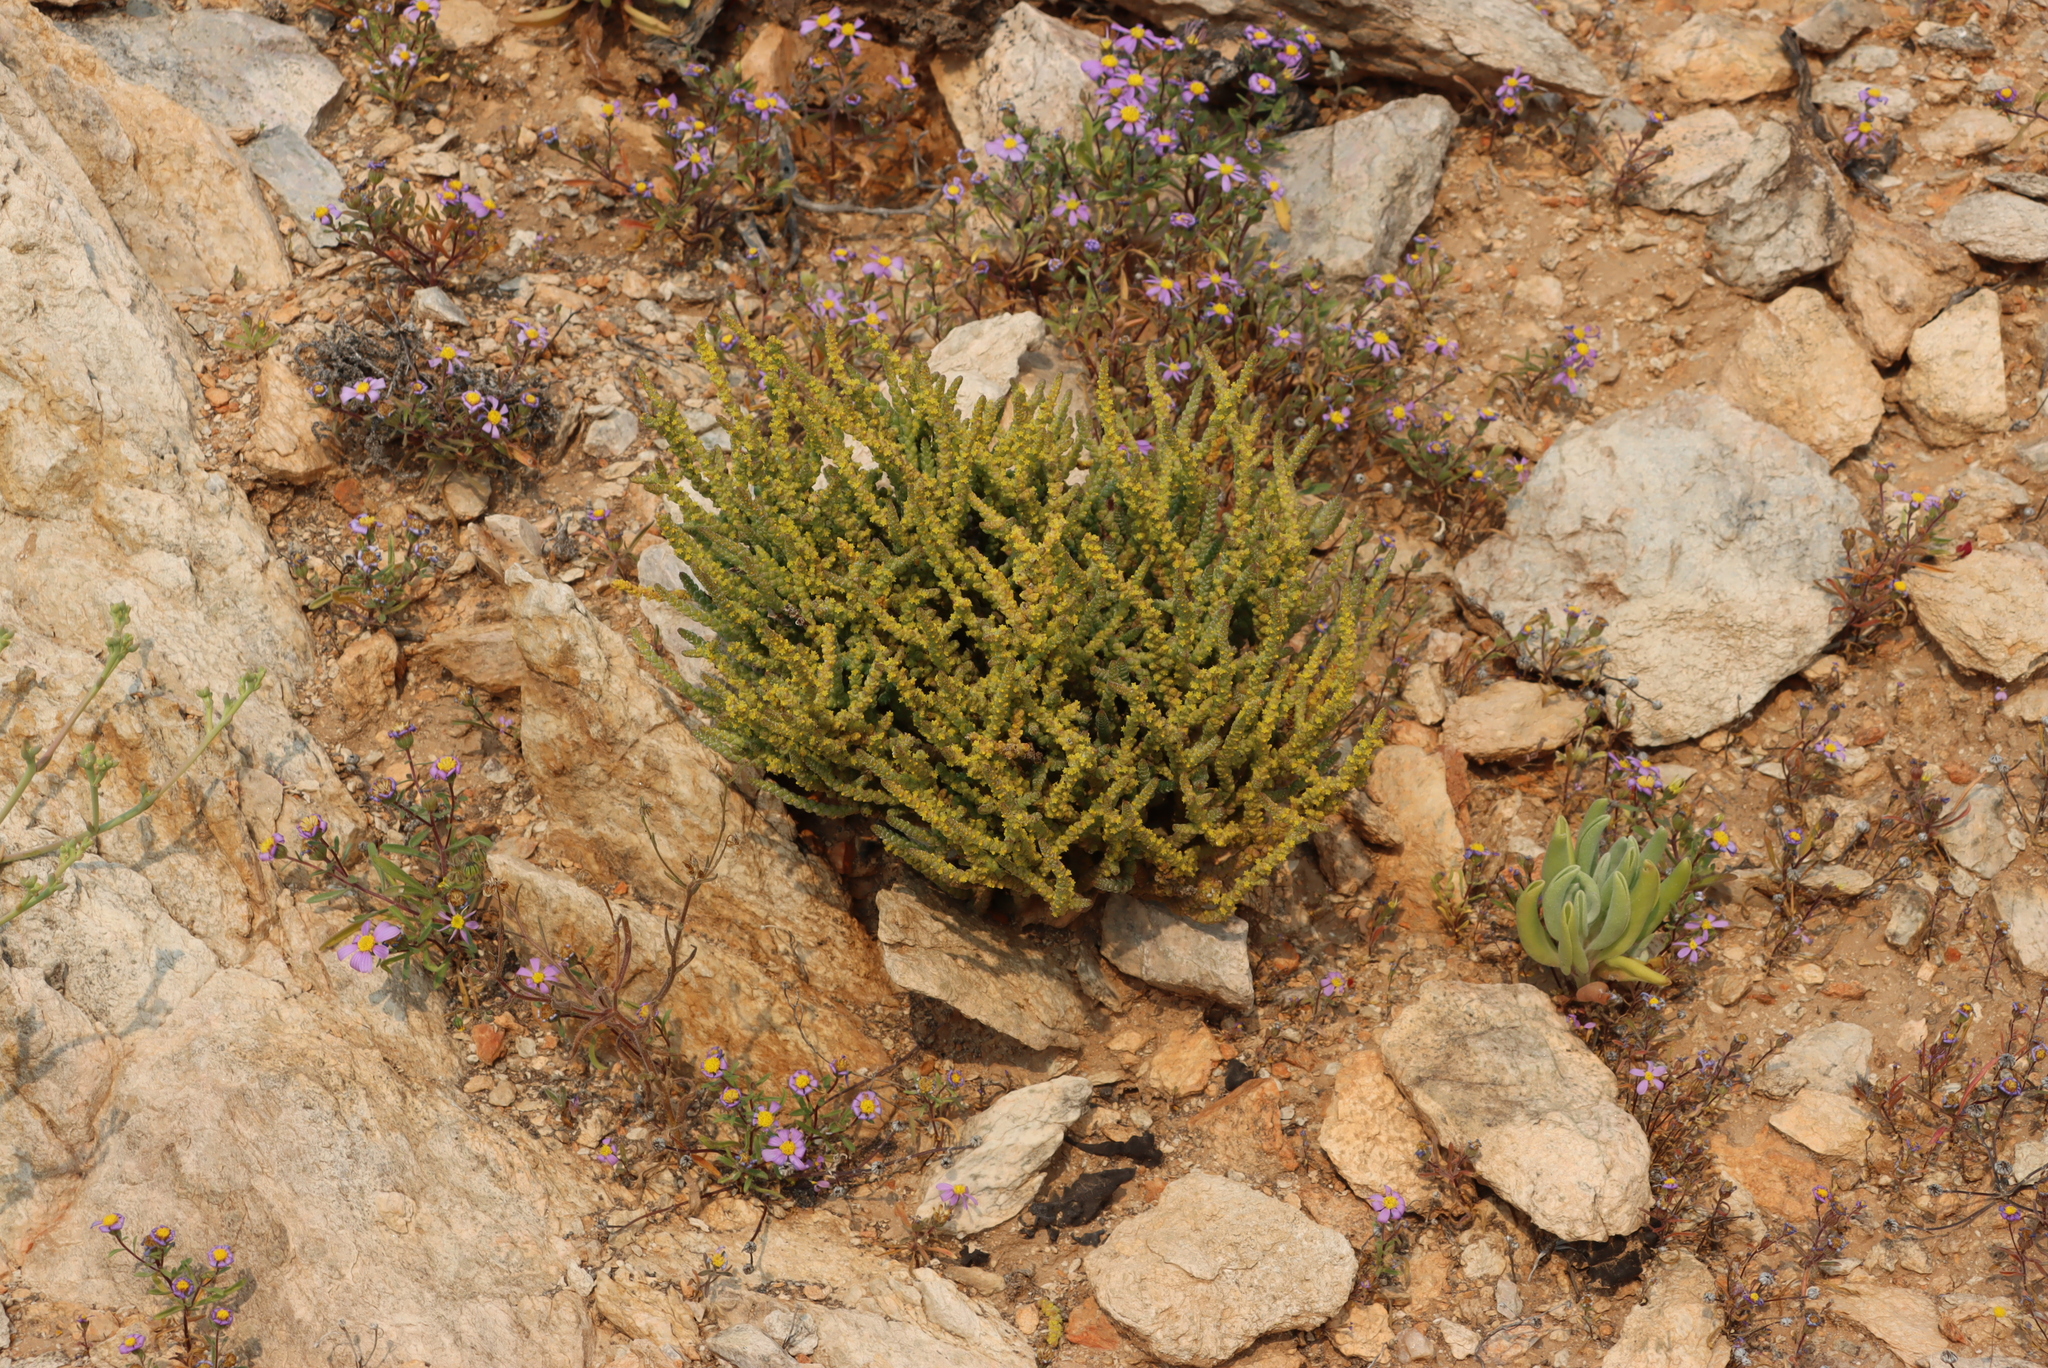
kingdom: Plantae
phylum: Tracheophyta
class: Magnoliopsida
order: Saxifragales
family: Crassulaceae
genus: Crassula
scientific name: Crassula muscosa
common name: Toy-cypress
